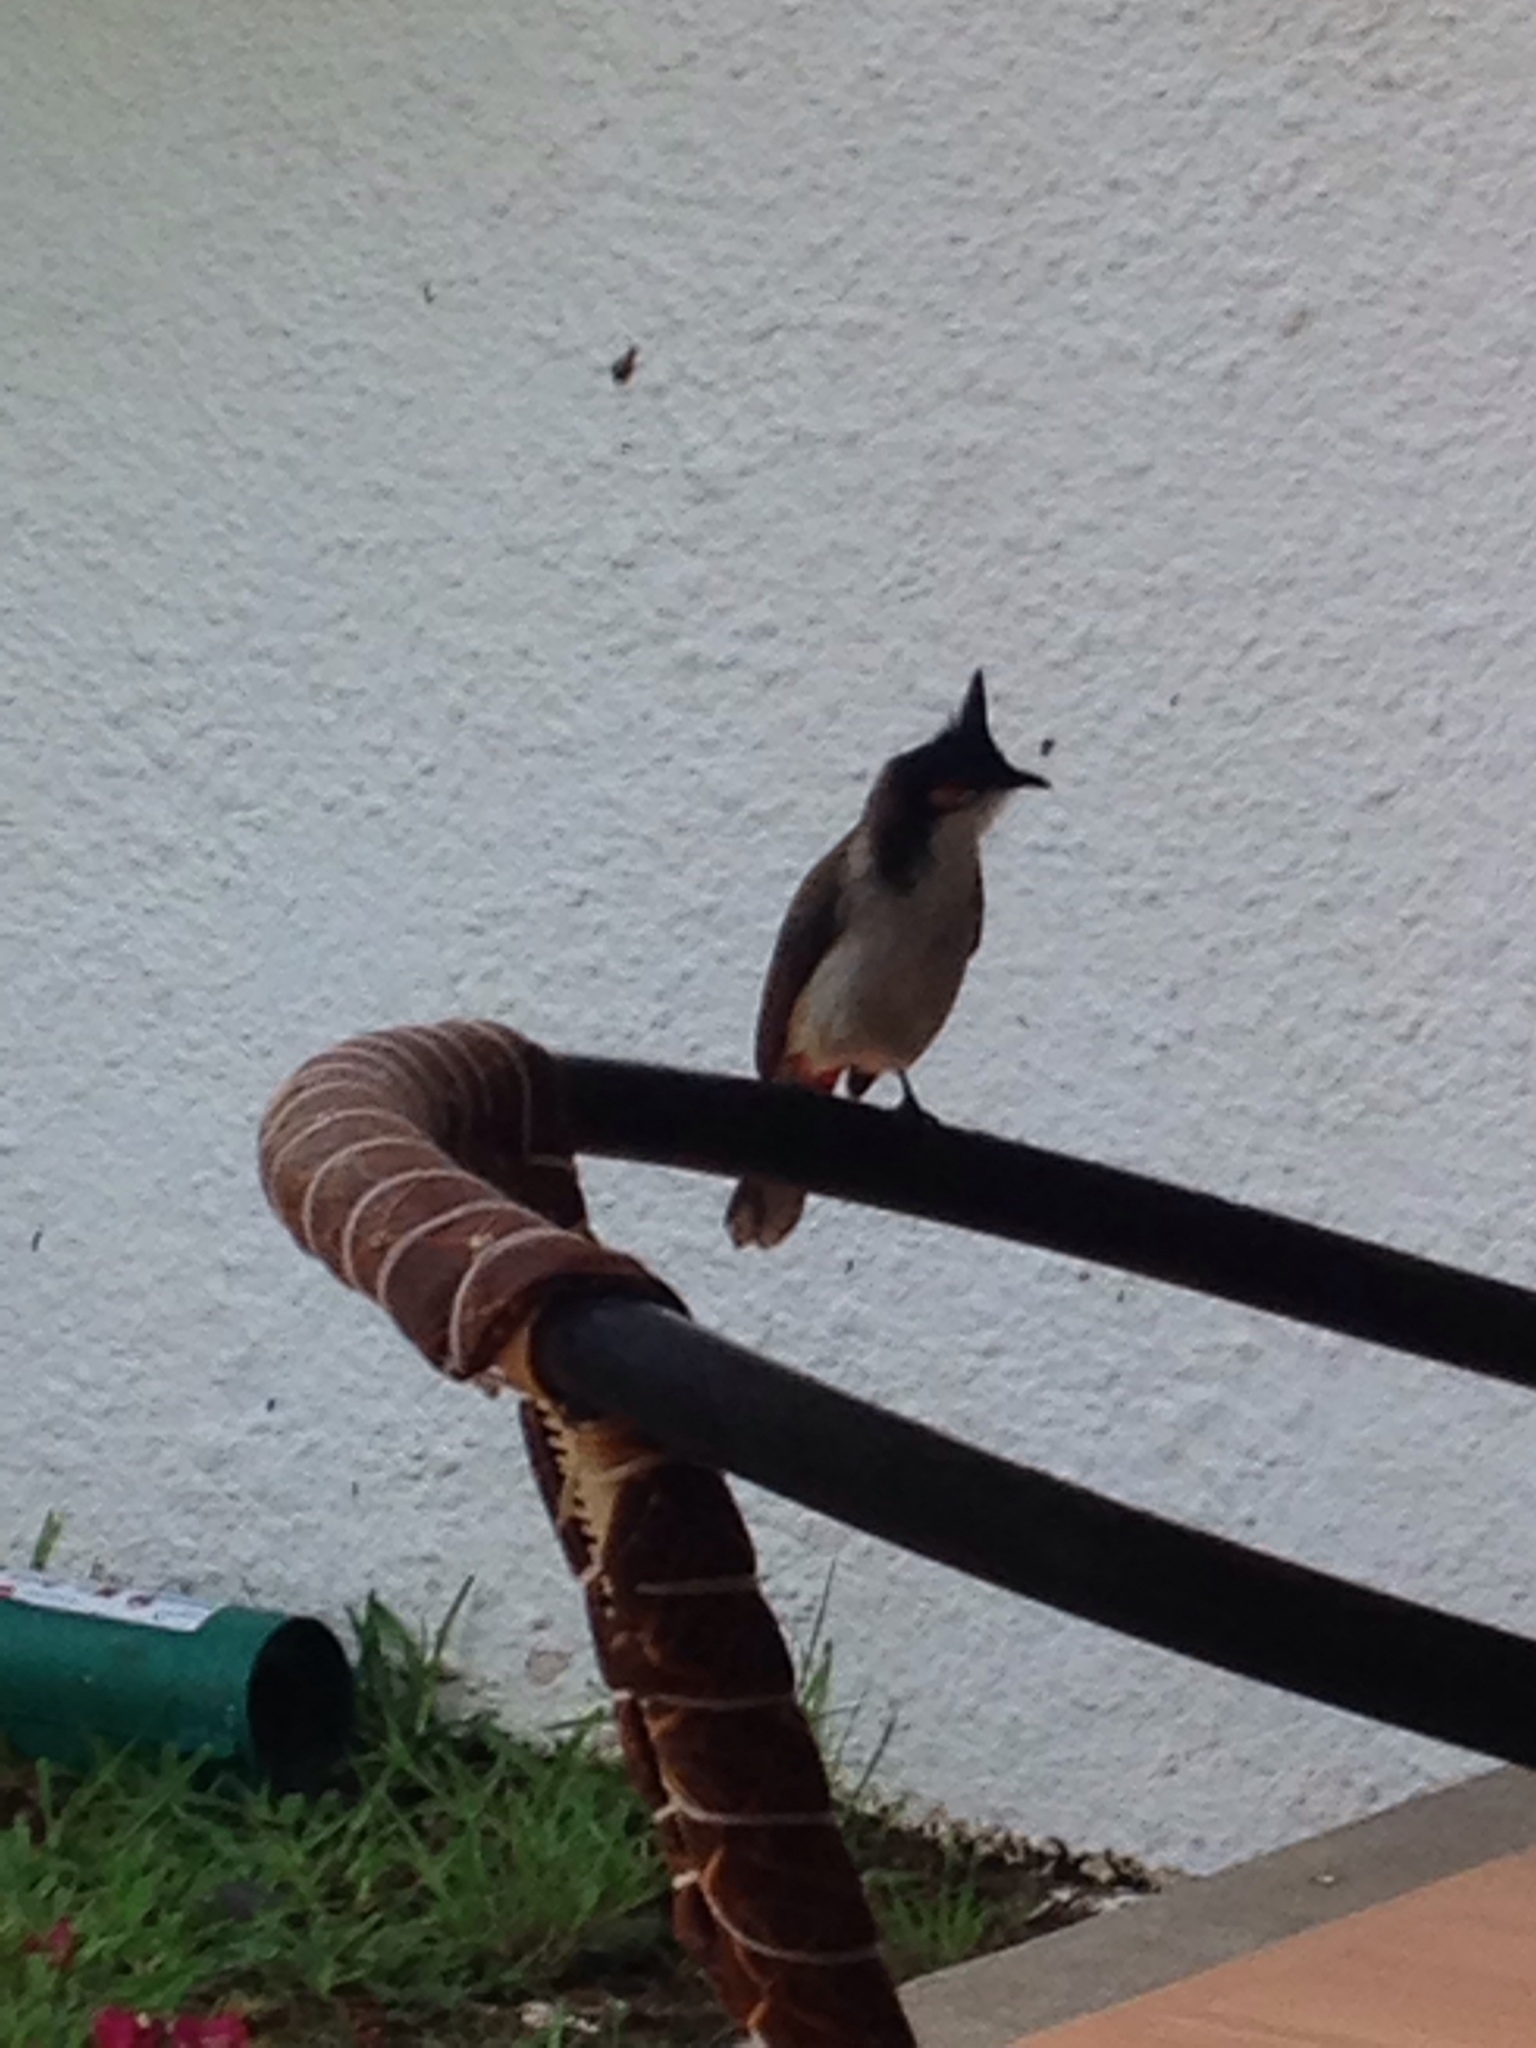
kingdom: Animalia
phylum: Chordata
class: Aves
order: Passeriformes
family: Pycnonotidae
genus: Pycnonotus
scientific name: Pycnonotus jocosus
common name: Red-whiskered bulbul
